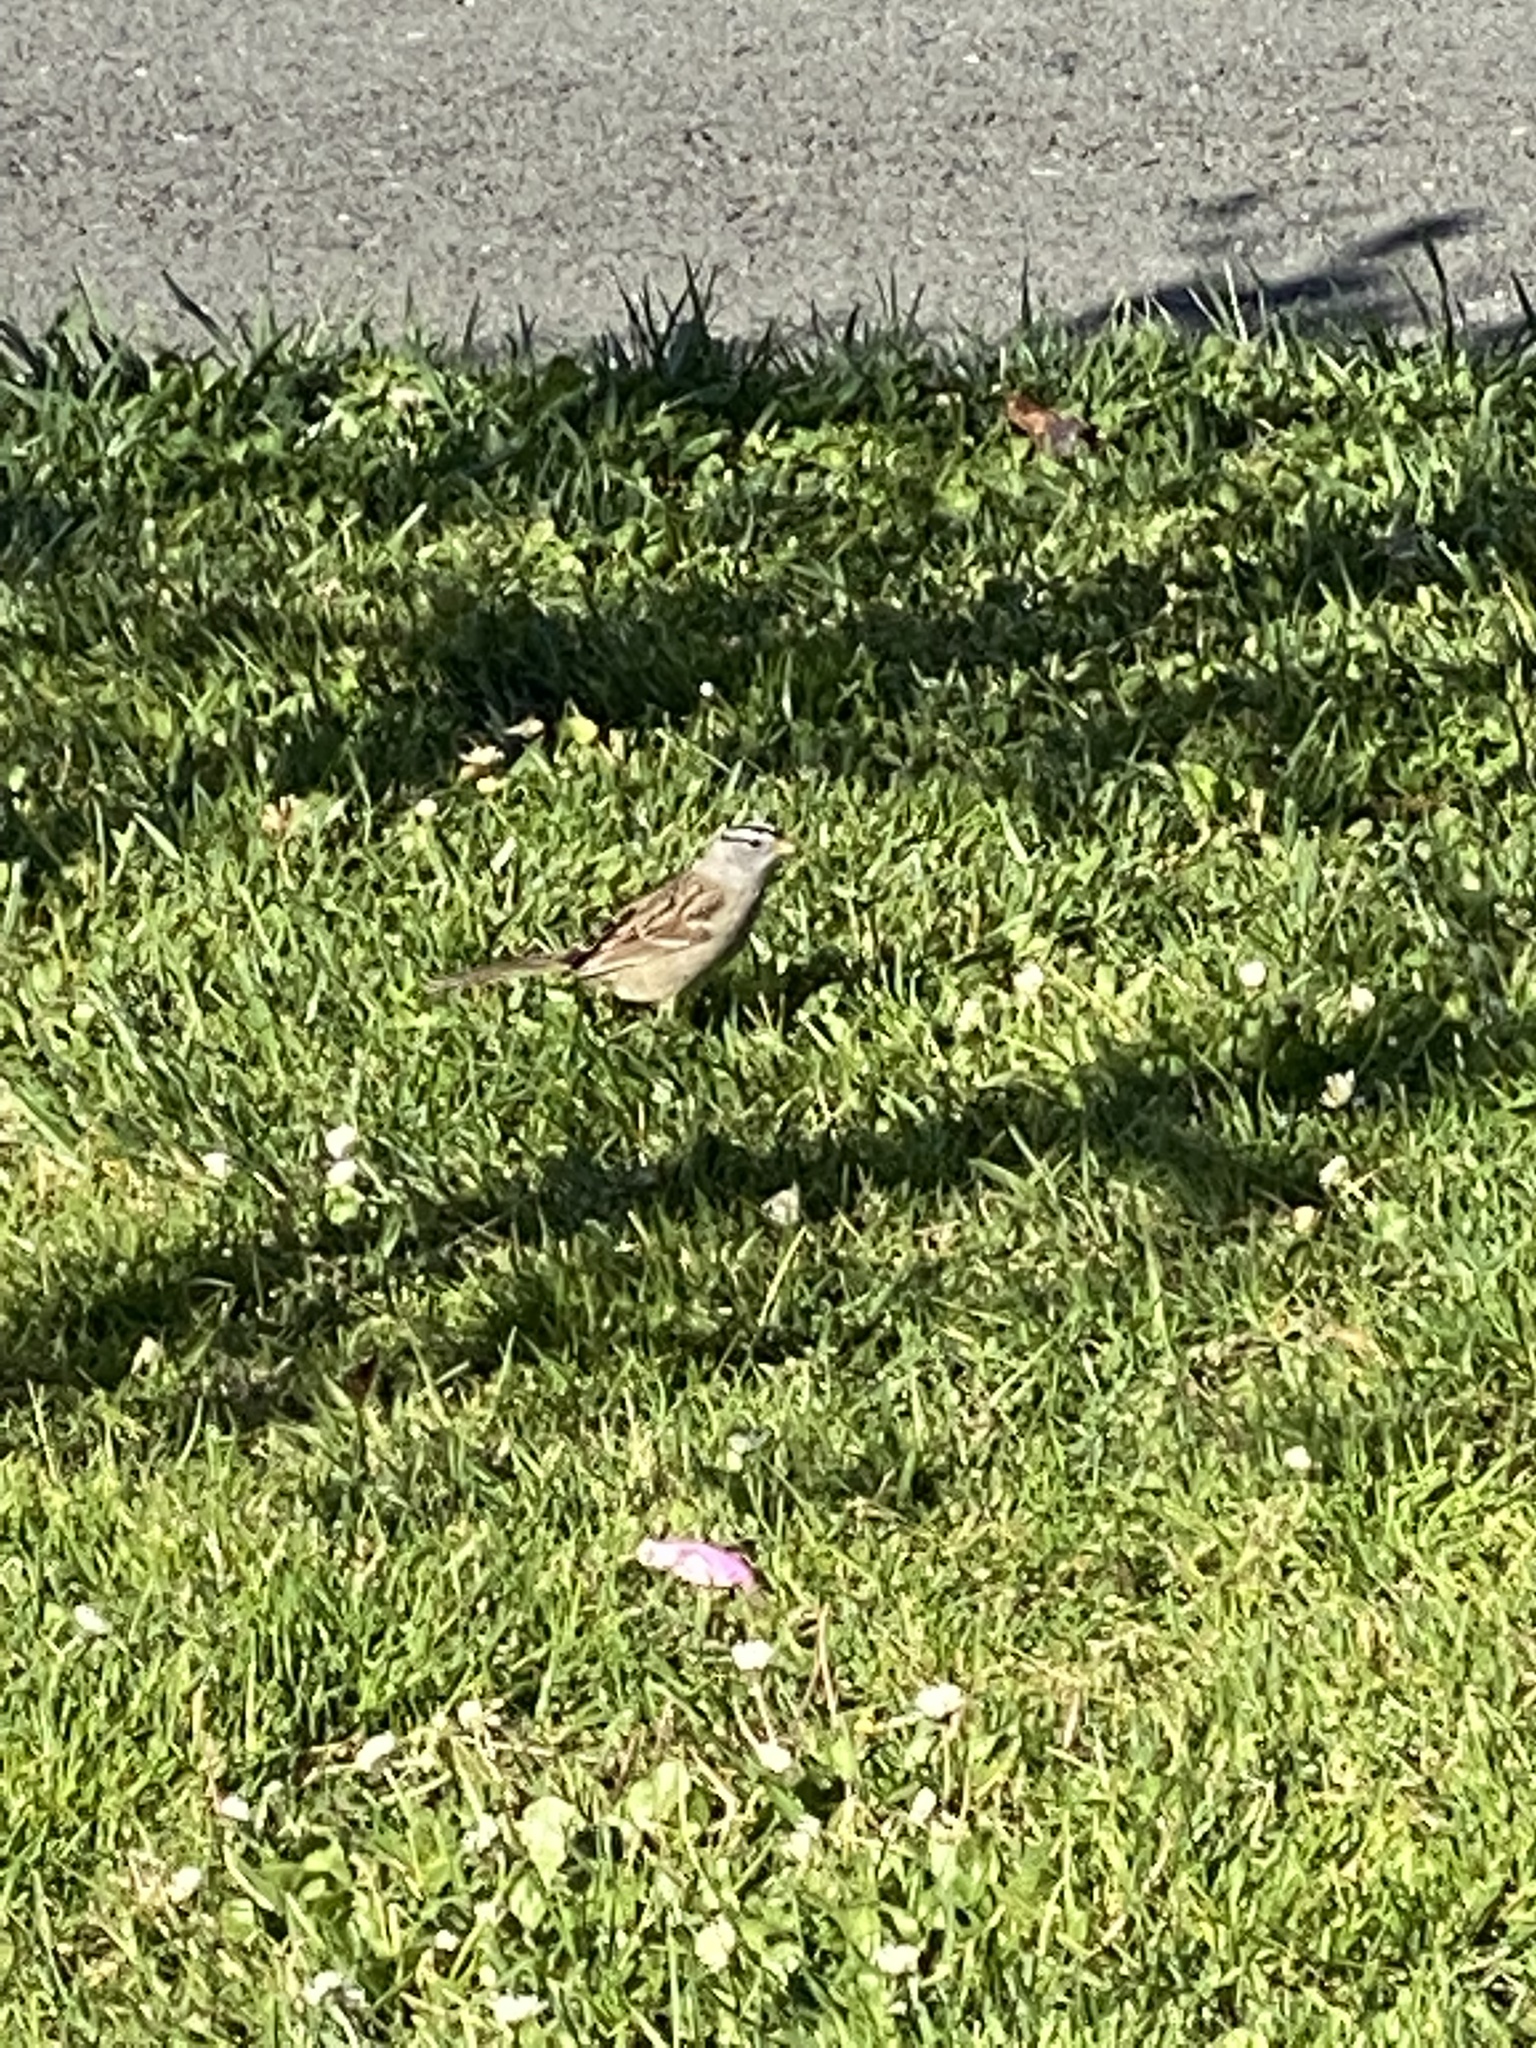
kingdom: Animalia
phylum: Chordata
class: Aves
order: Passeriformes
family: Passerellidae
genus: Zonotrichia
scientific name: Zonotrichia leucophrys
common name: White-crowned sparrow
